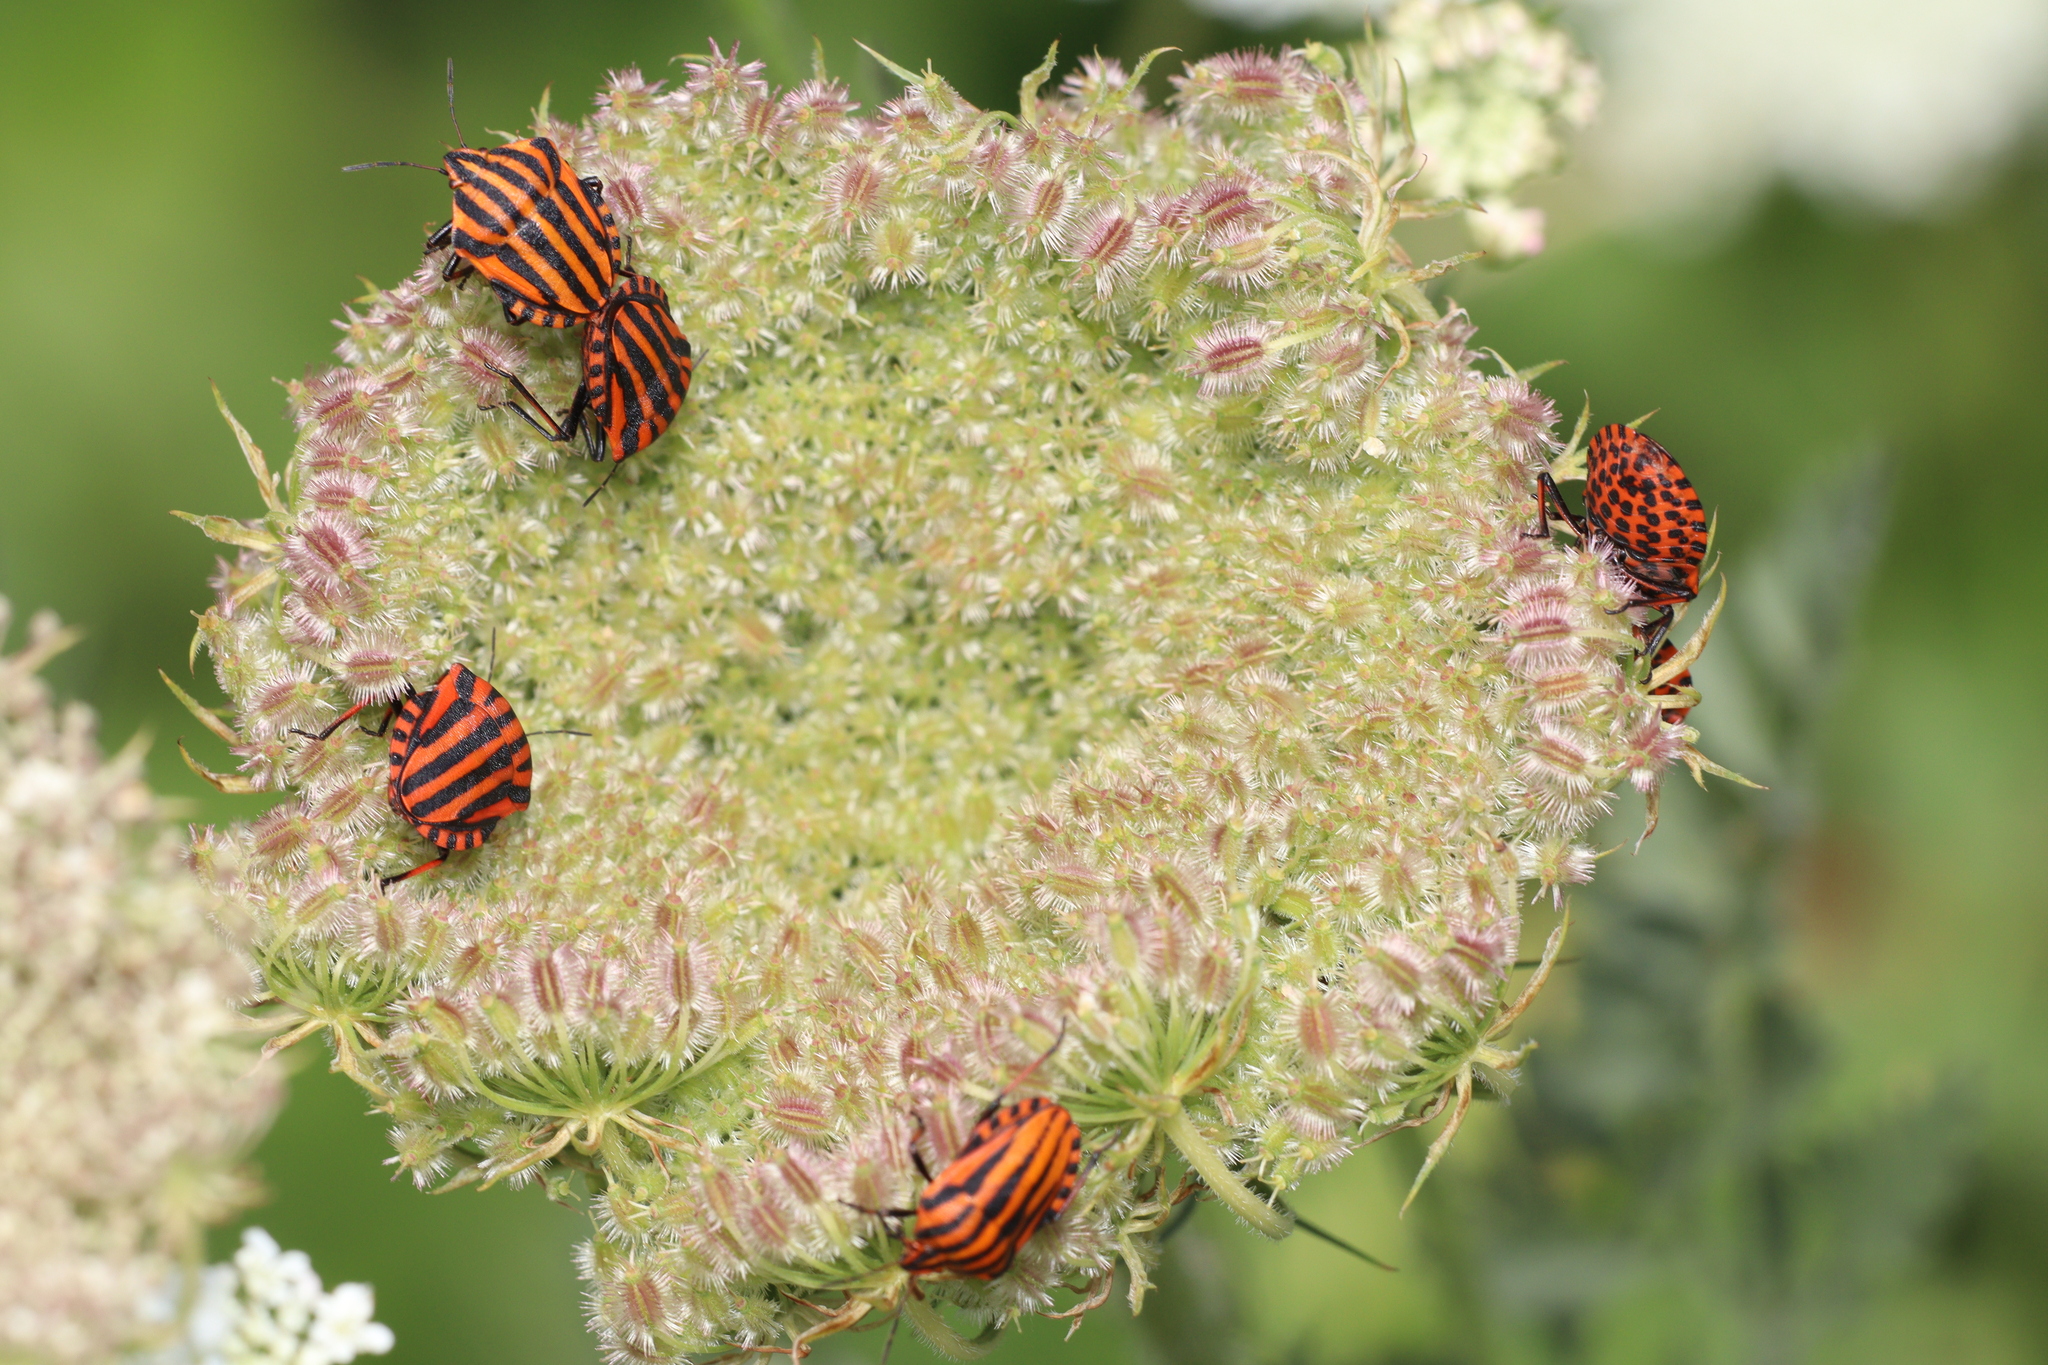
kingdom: Animalia
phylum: Arthropoda
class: Insecta
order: Hemiptera
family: Pentatomidae
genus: Graphosoma
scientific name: Graphosoma italicum
